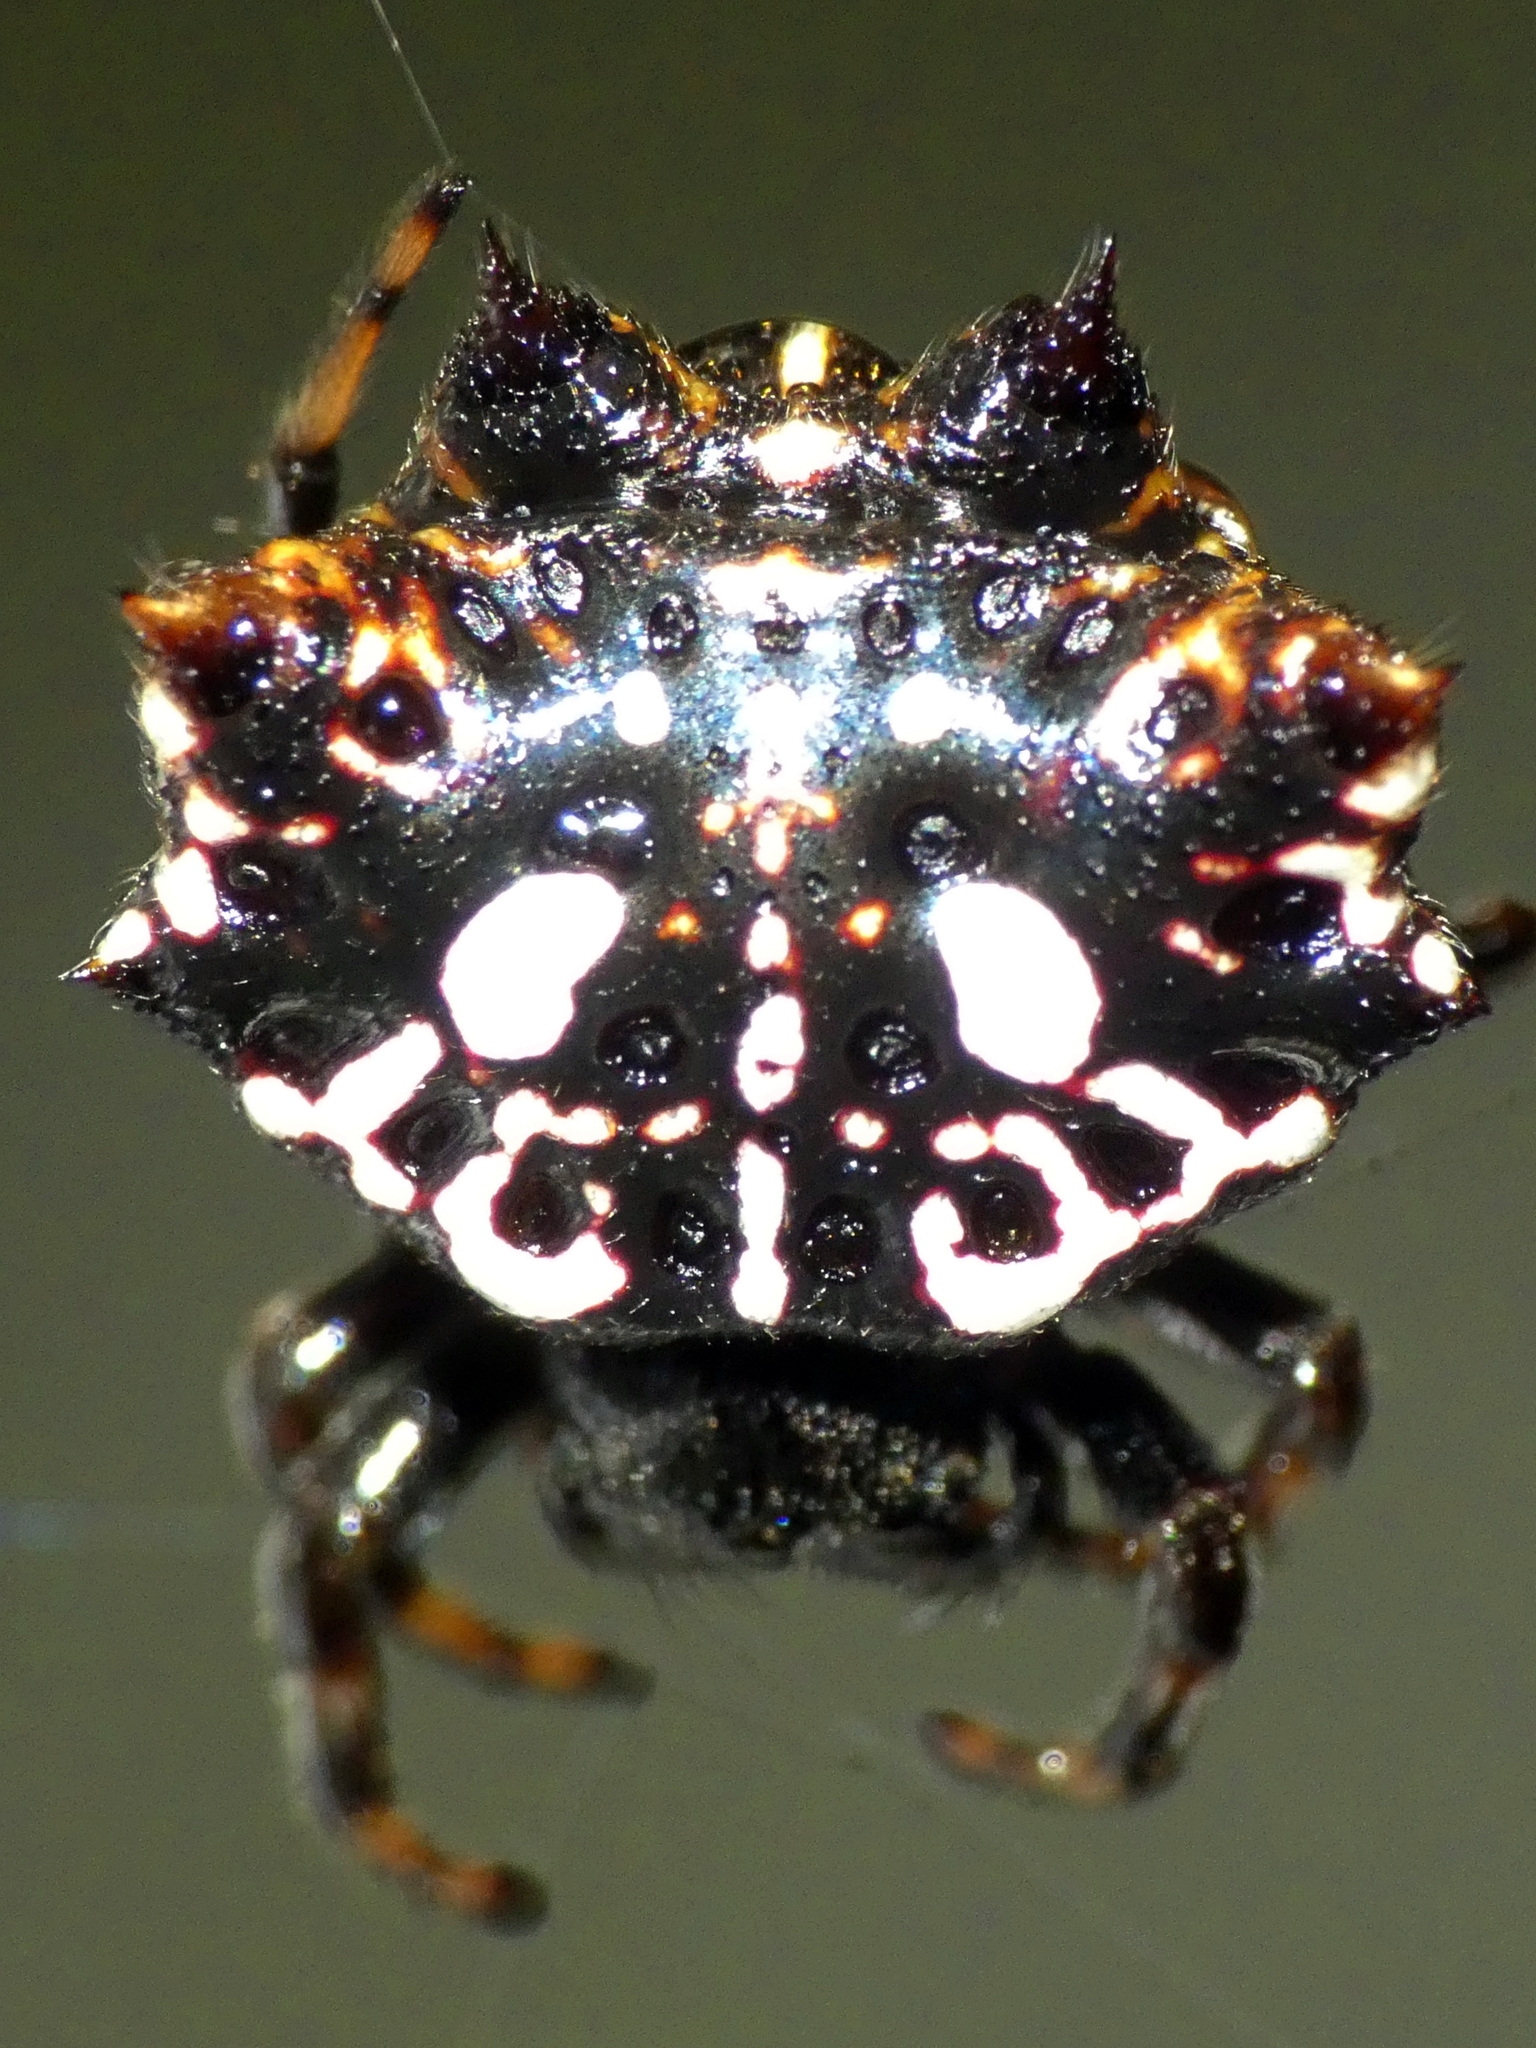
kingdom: Animalia
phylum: Arthropoda
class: Arachnida
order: Araneae
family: Araneidae
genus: Gasteracantha
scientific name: Gasteracantha sacerdotalis
